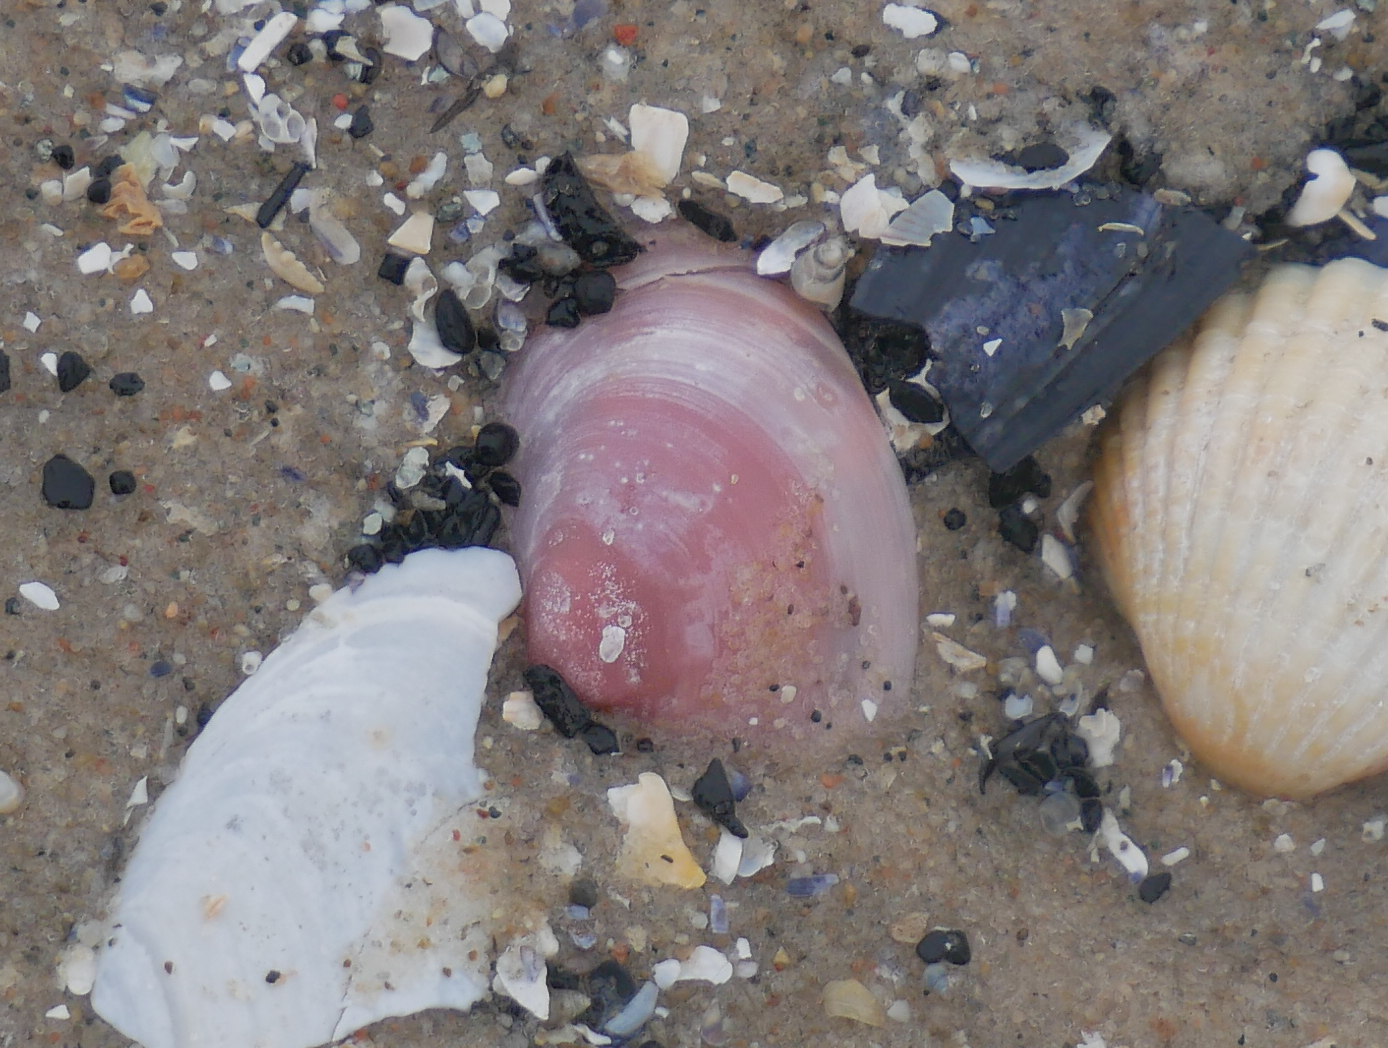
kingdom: Animalia
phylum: Mollusca
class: Bivalvia
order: Cardiida
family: Tellinidae
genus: Macoma
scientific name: Macoma balthica
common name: Baltic tellin
